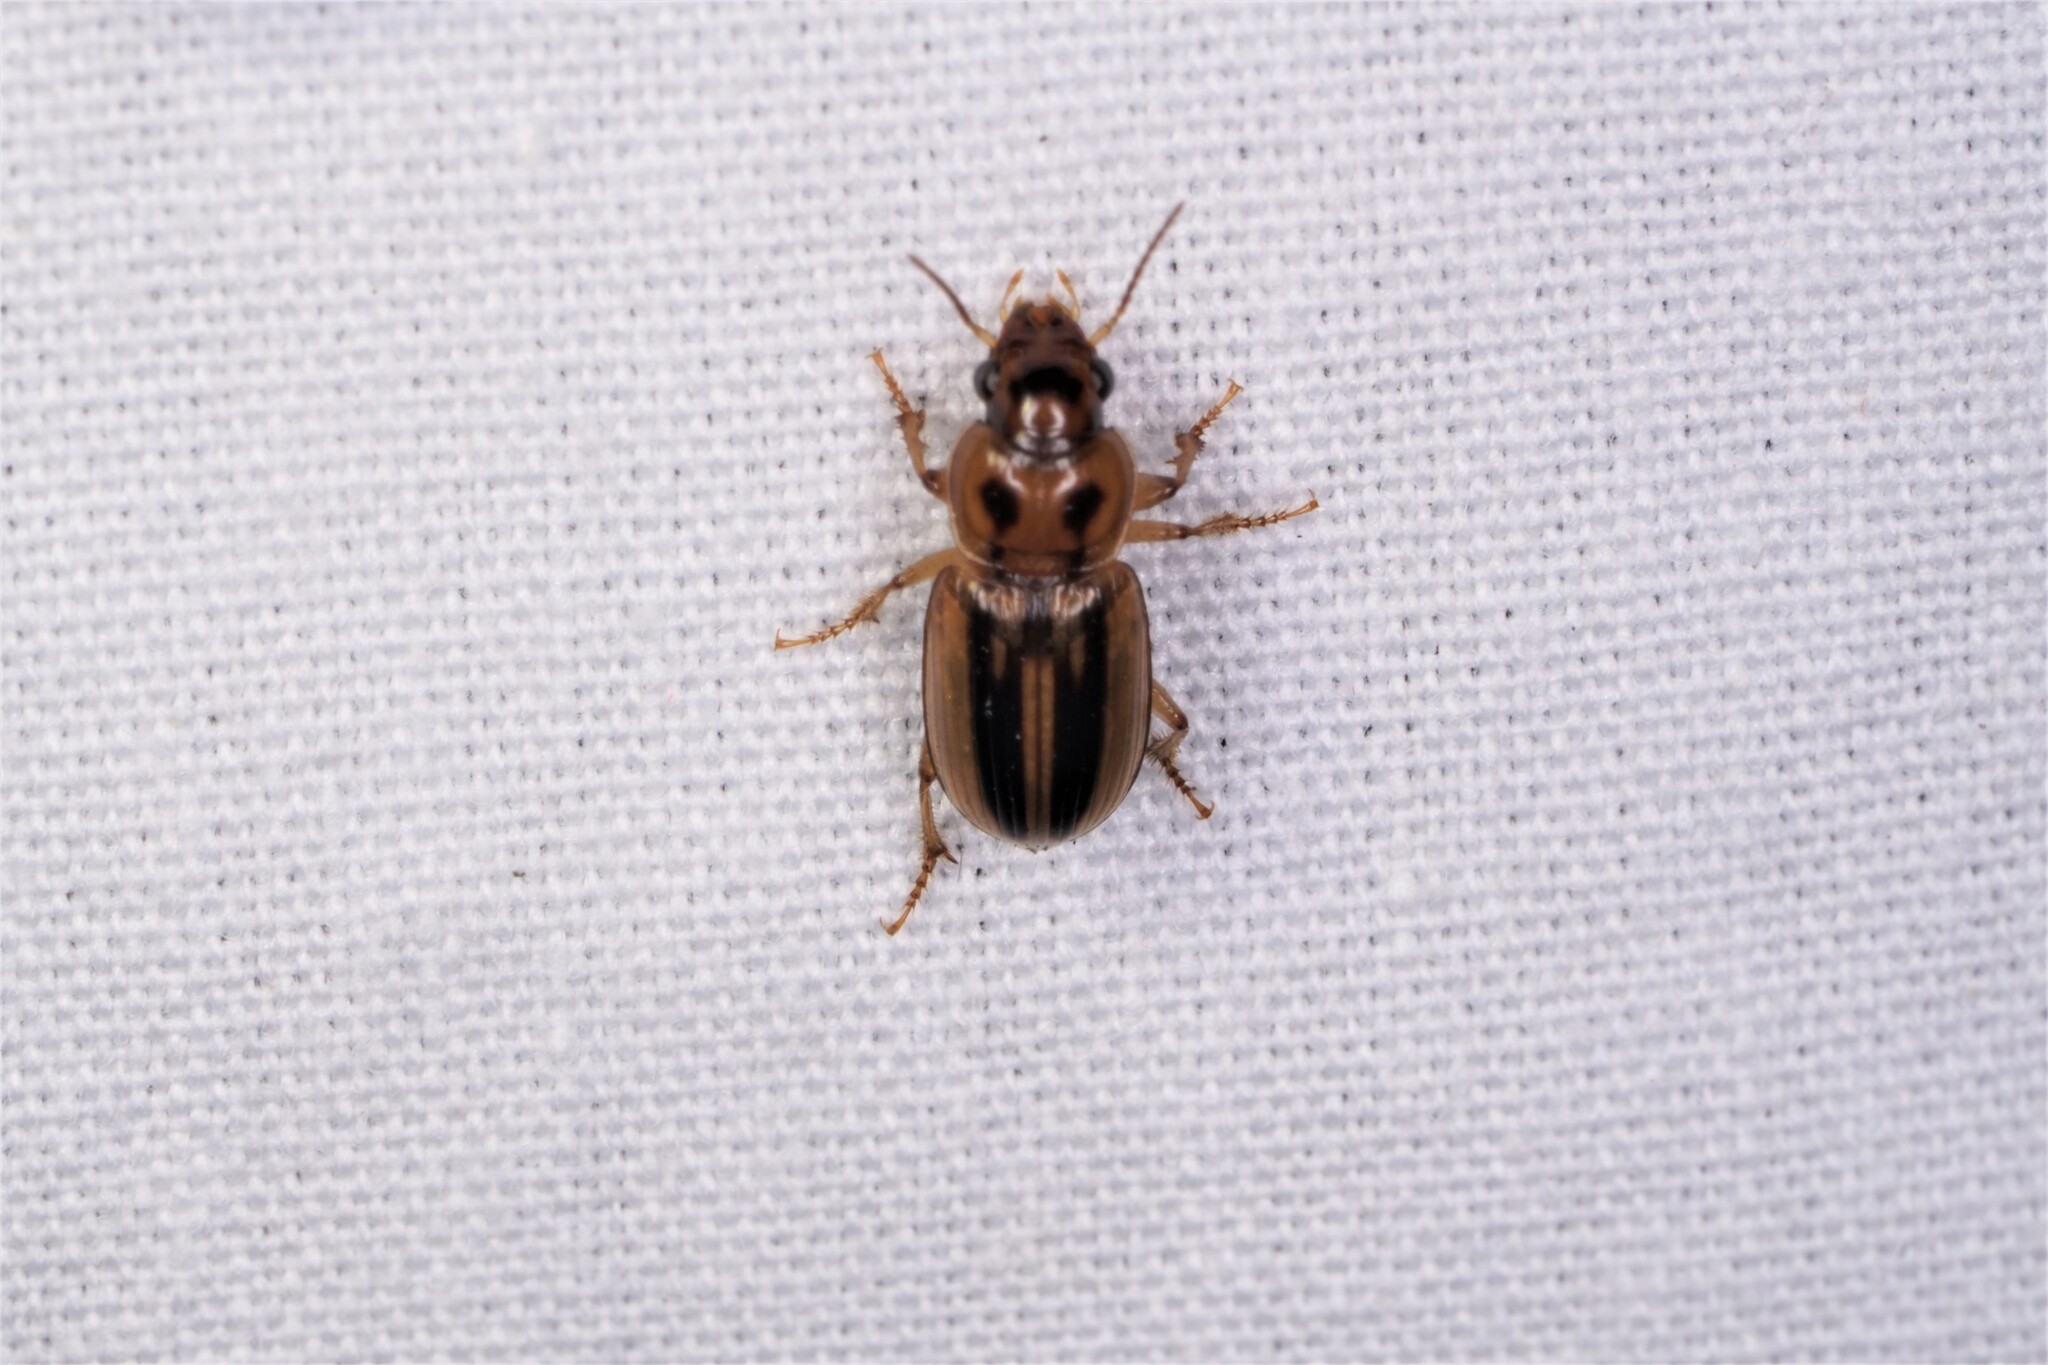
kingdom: Animalia
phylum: Arthropoda
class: Insecta
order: Coleoptera
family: Carabidae
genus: Stenolophus
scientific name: Stenolophus lineola
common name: Lined stenolophus
